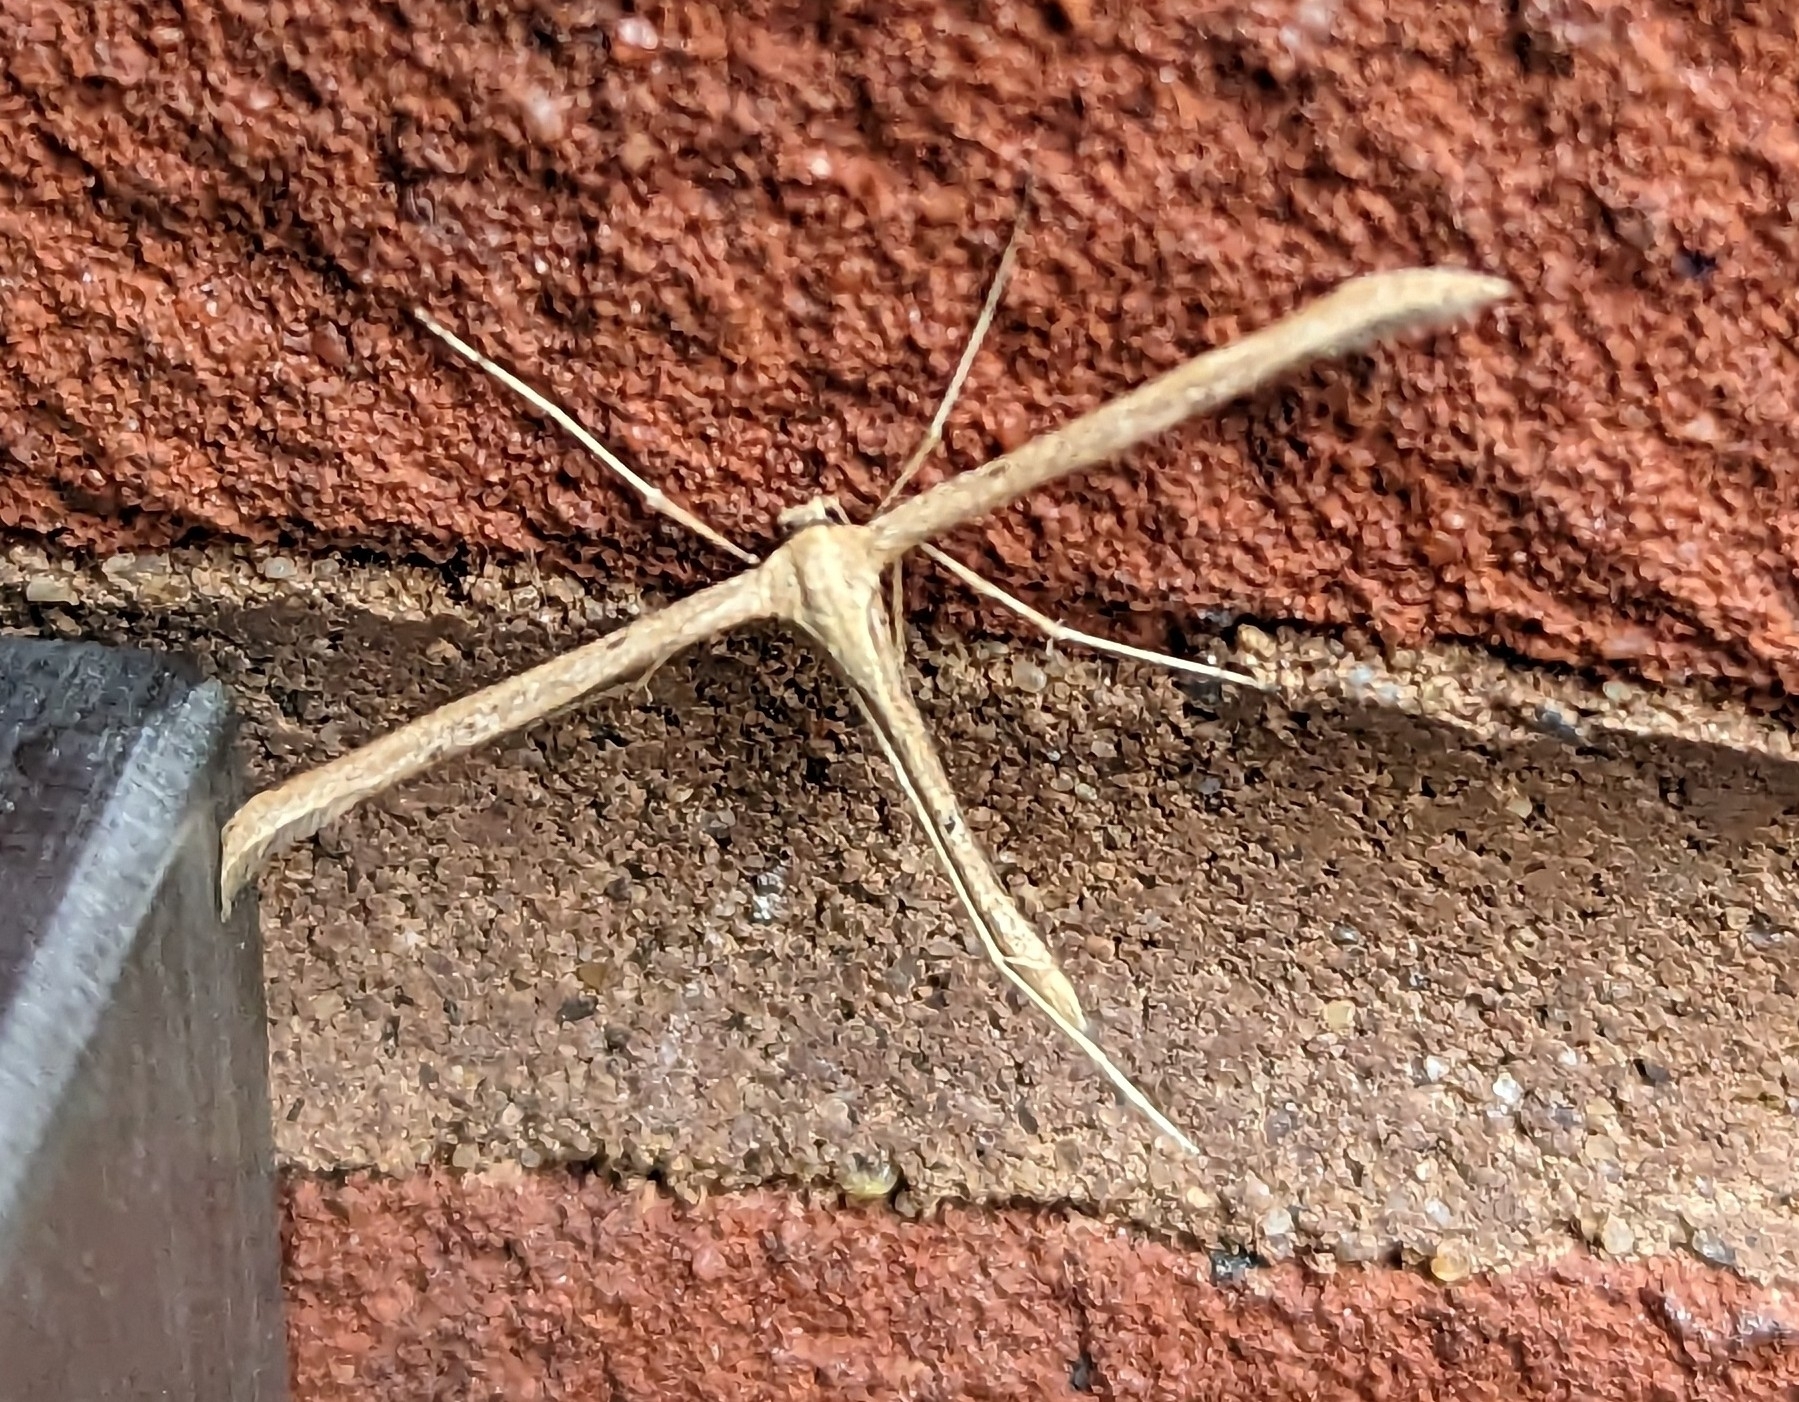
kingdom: Animalia
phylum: Arthropoda
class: Insecta
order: Lepidoptera
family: Pterophoridae
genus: Emmelina
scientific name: Emmelina monodactyla
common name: Common plume
